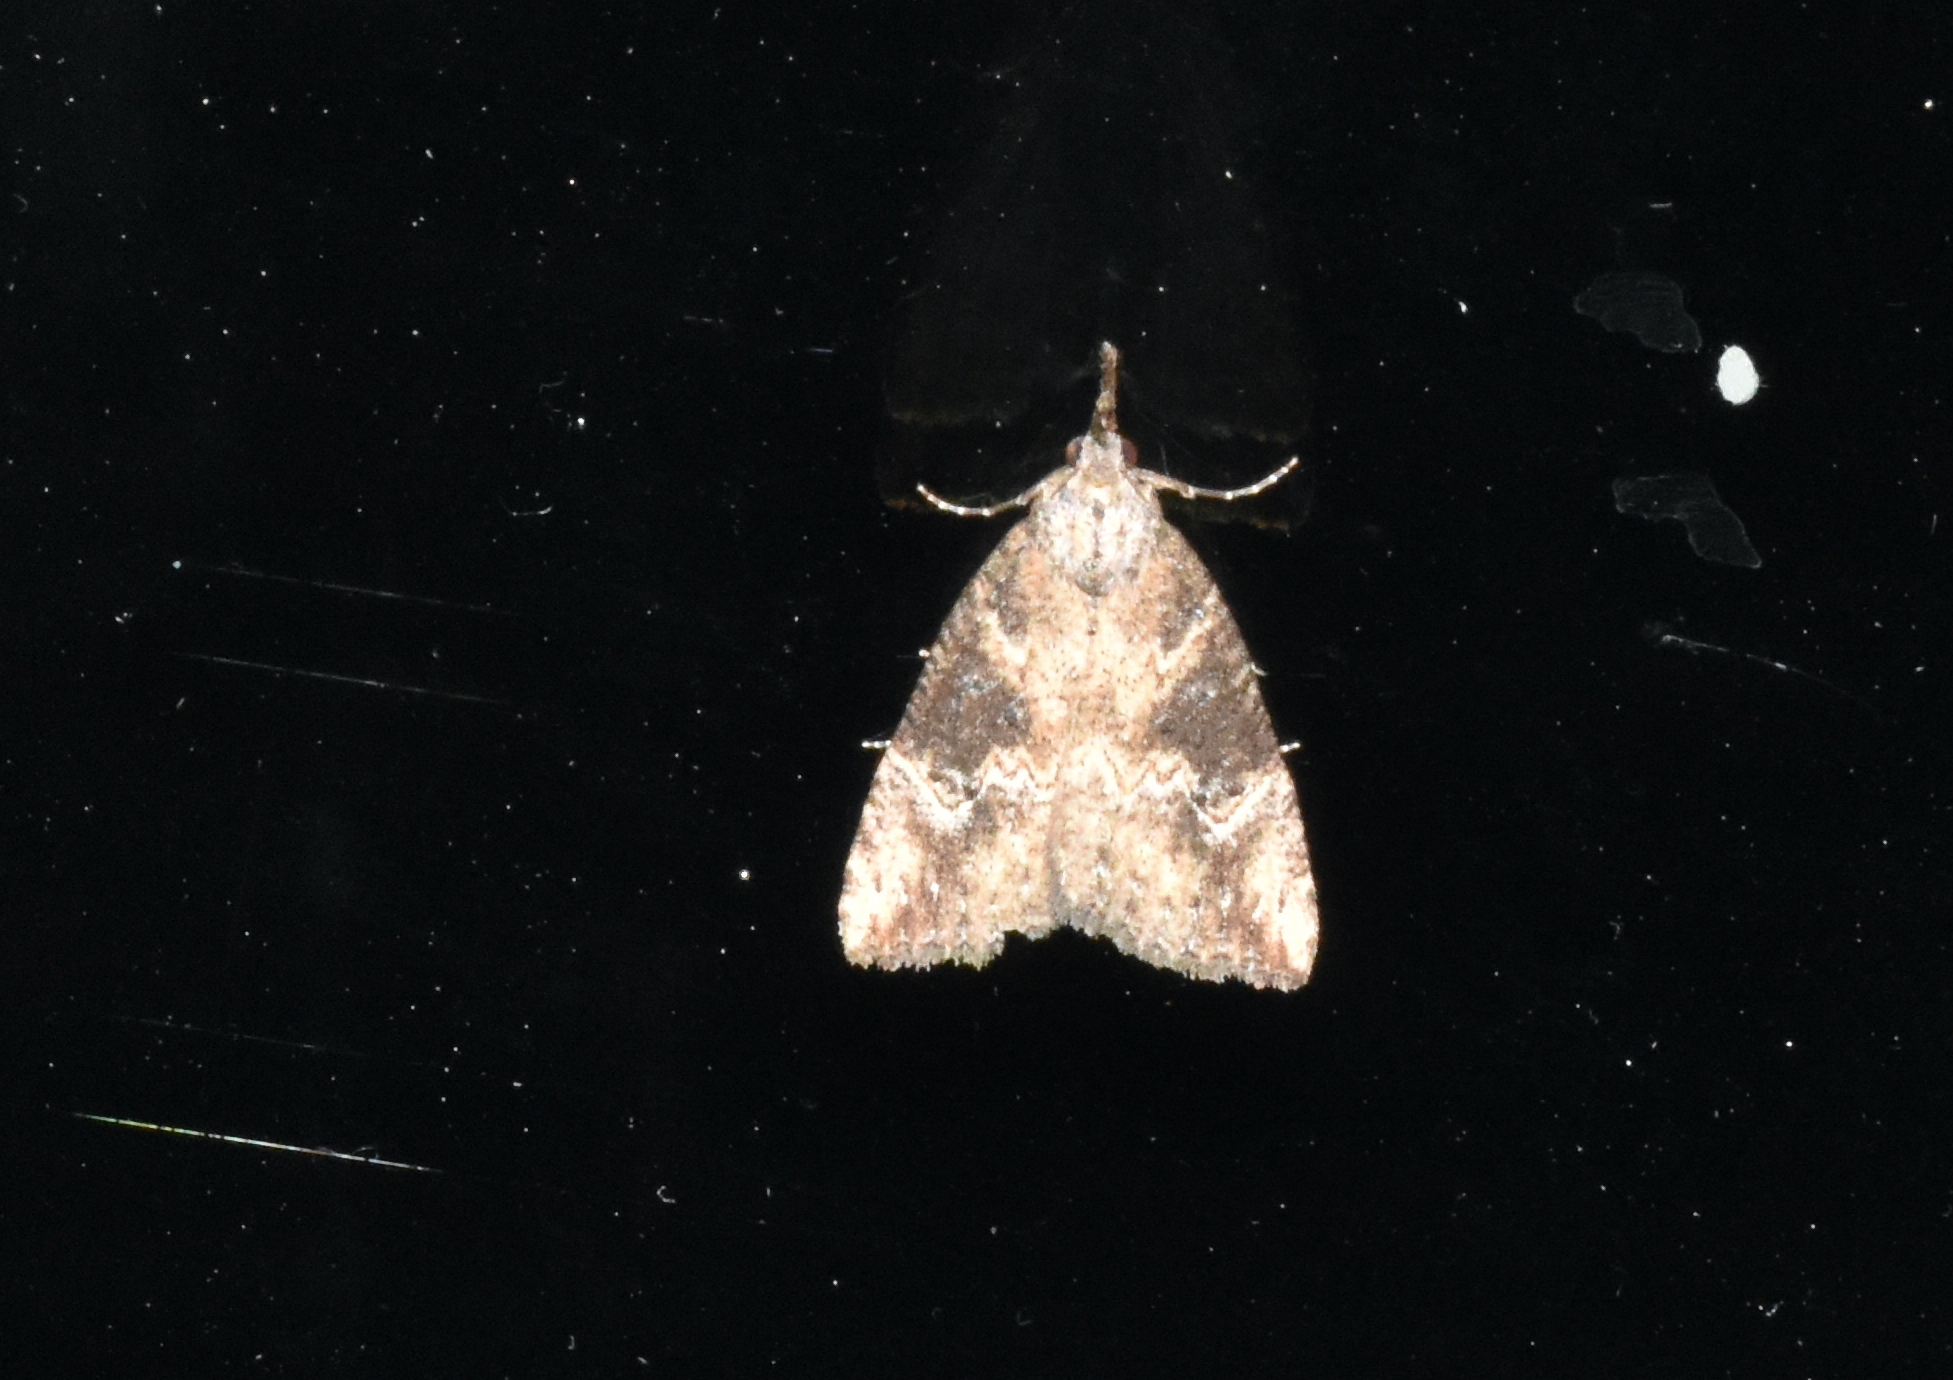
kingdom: Animalia
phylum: Arthropoda
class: Insecta
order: Lepidoptera
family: Erebidae
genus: Hypena
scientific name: Hypena humuli
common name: Hop vine snout
